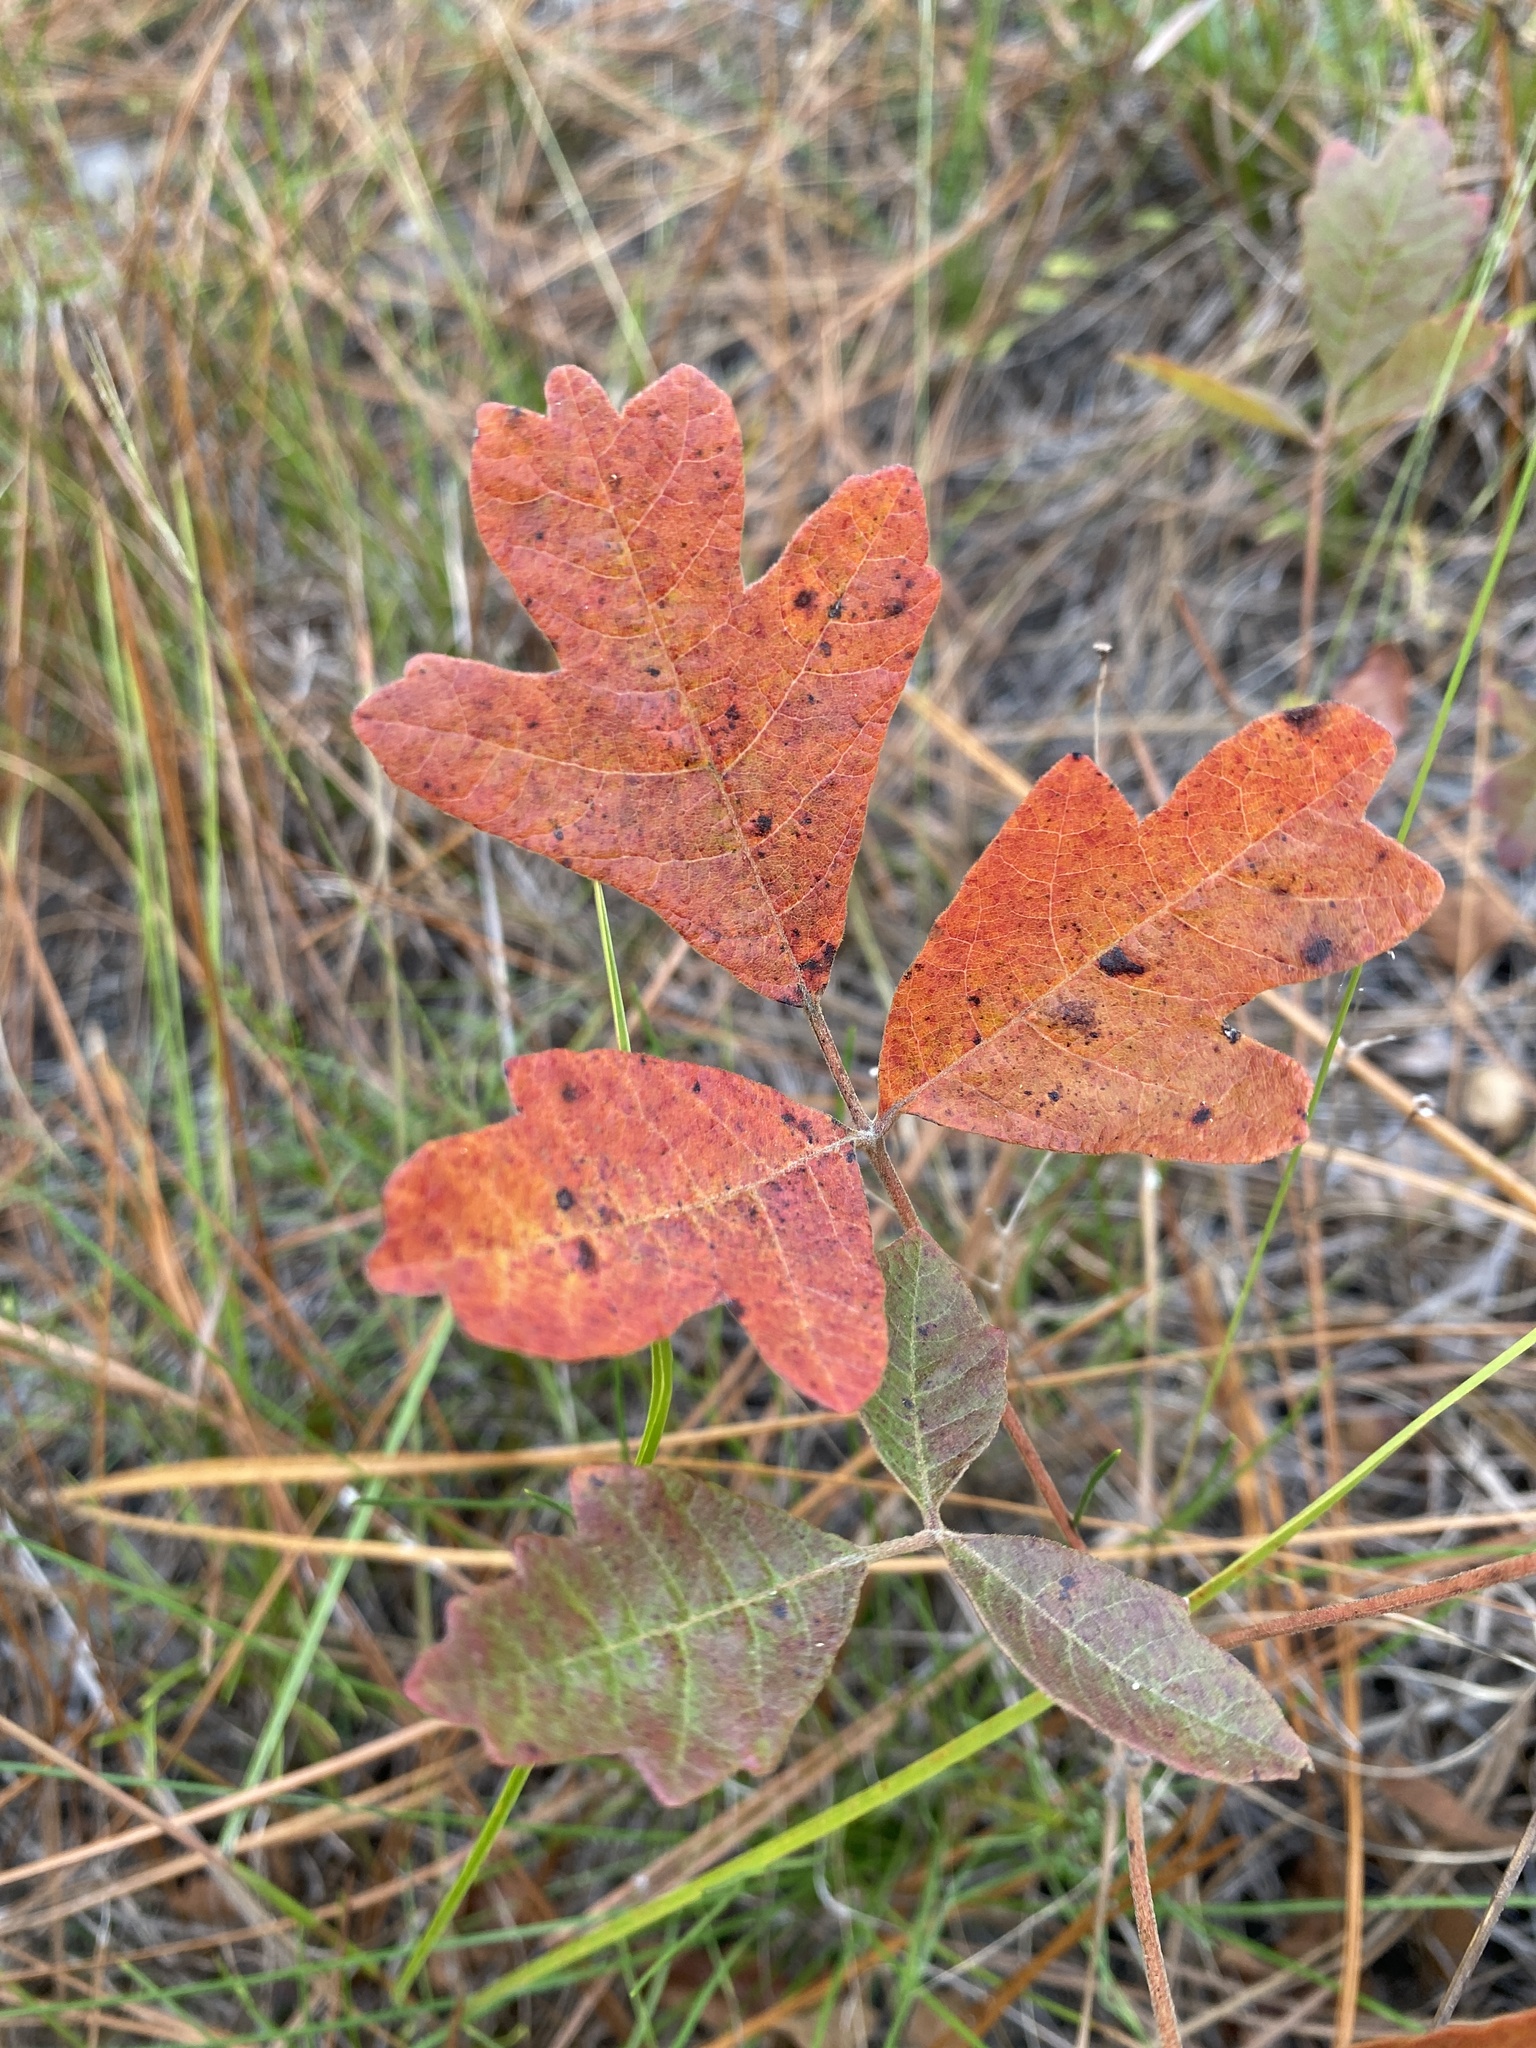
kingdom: Plantae
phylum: Tracheophyta
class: Magnoliopsida
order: Sapindales
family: Anacardiaceae
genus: Toxicodendron
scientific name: Toxicodendron pubescens
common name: Eastern poison-oak
